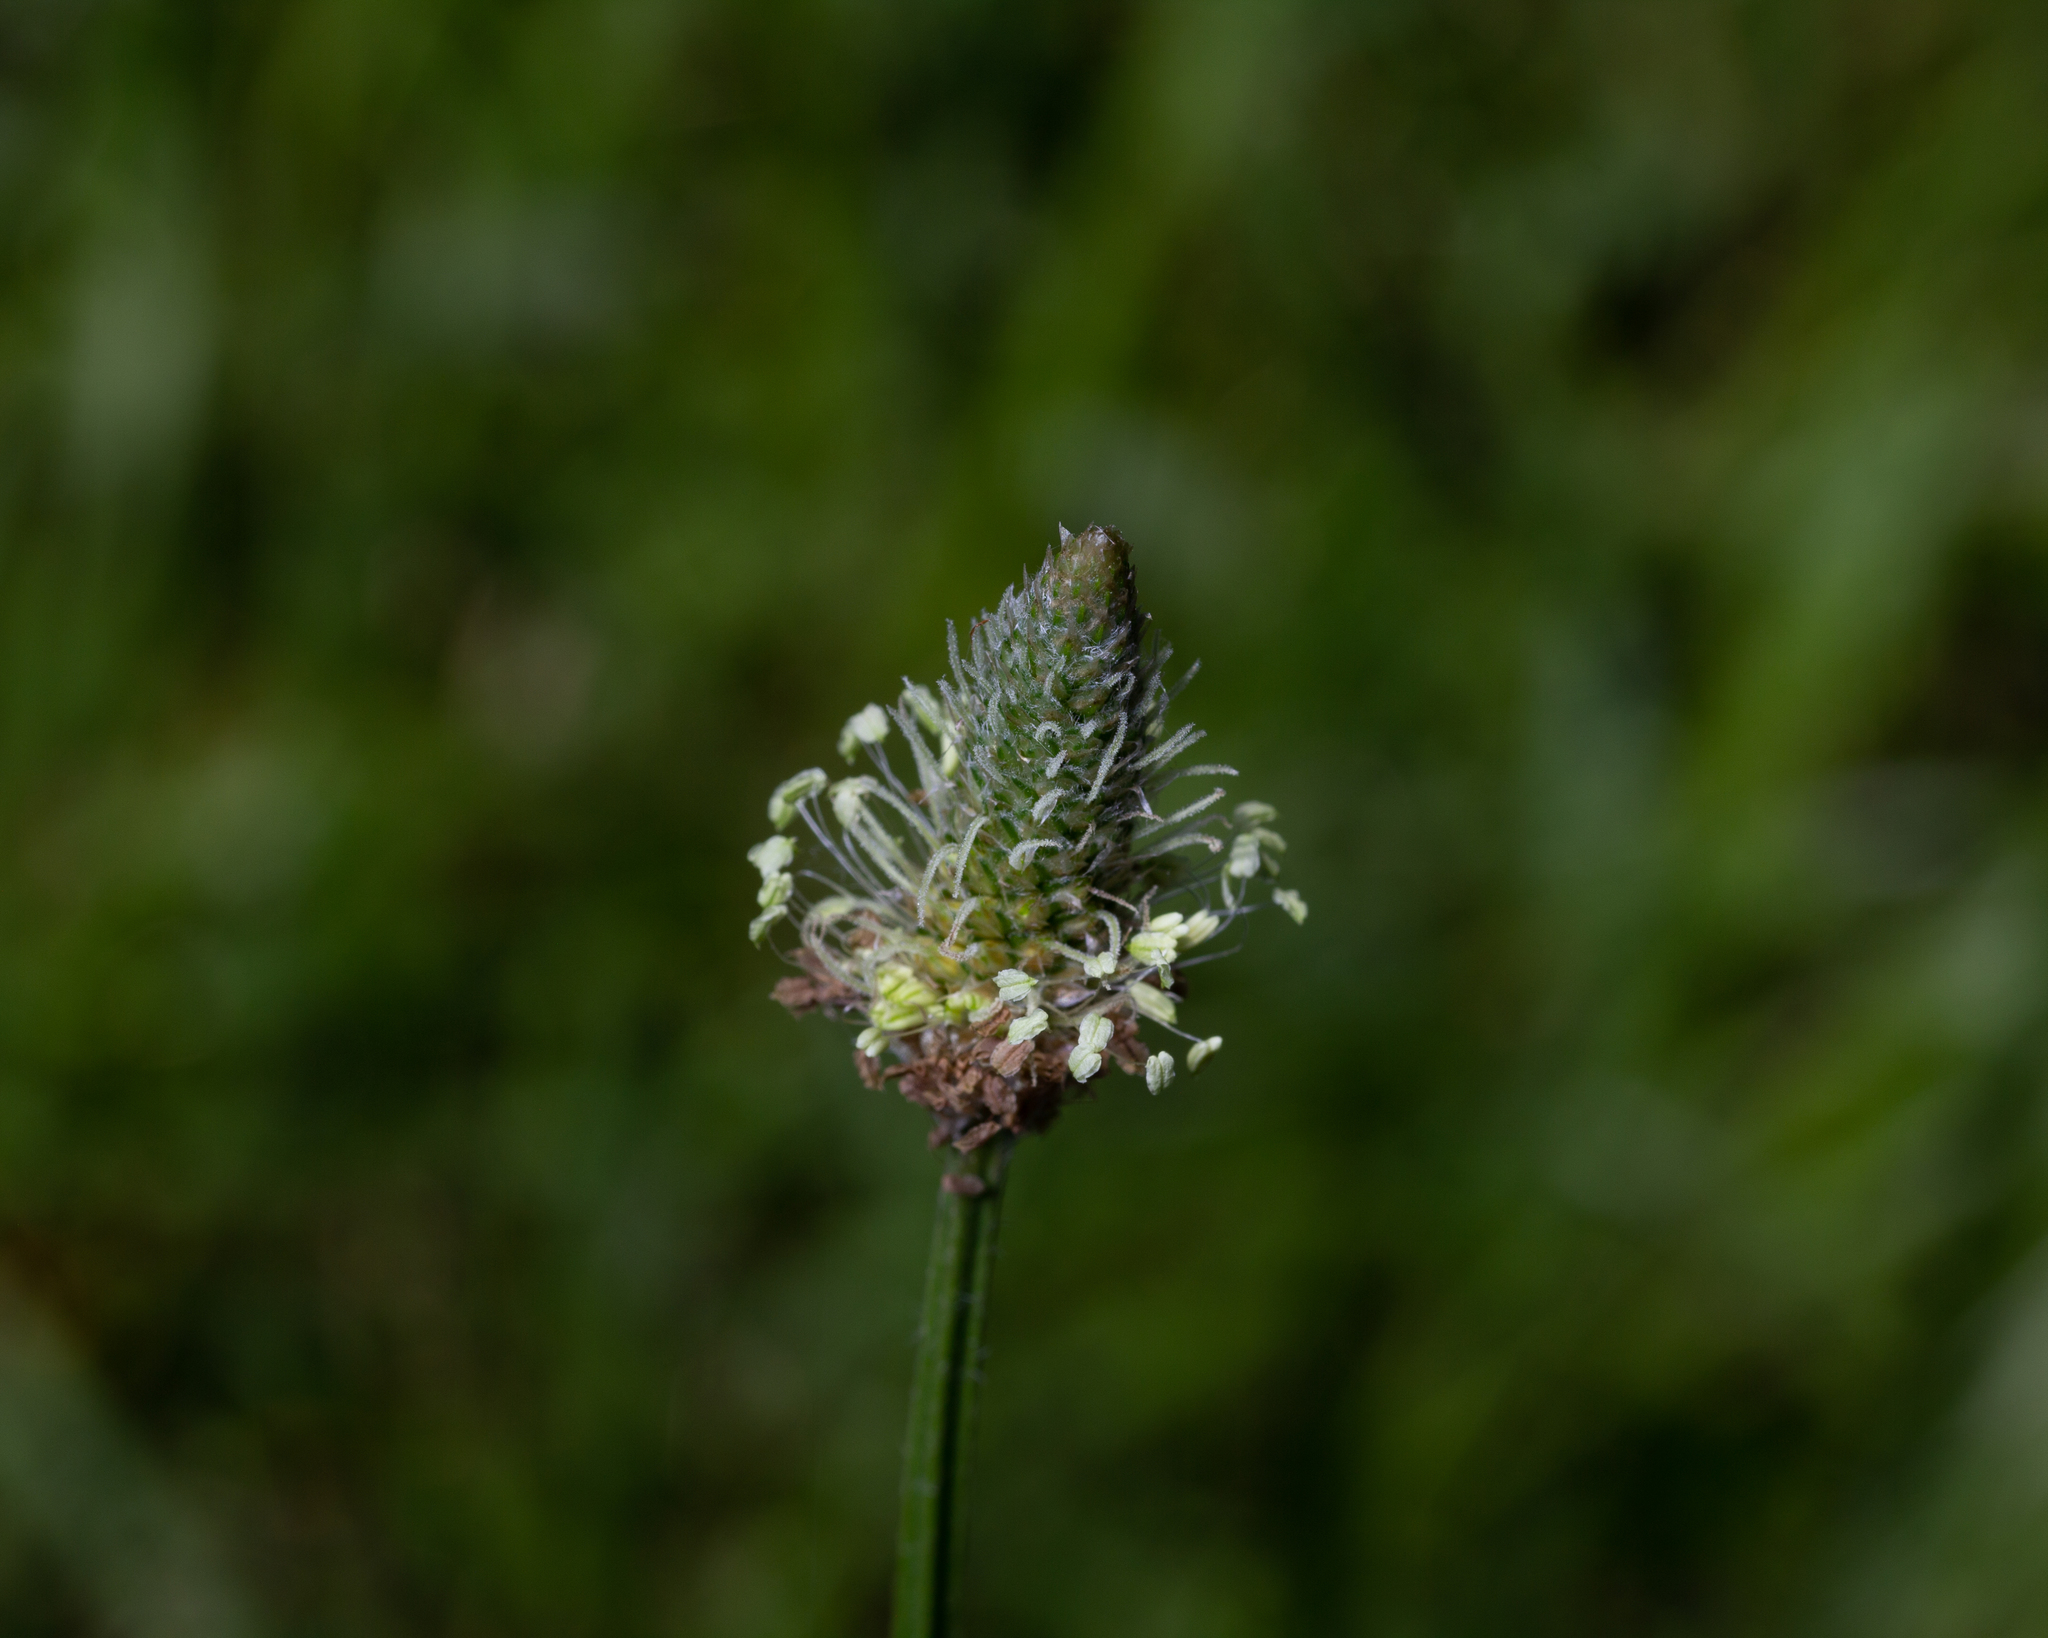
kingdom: Plantae
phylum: Tracheophyta
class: Magnoliopsida
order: Lamiales
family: Plantaginaceae
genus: Plantago
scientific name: Plantago lanceolata
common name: Ribwort plantain
